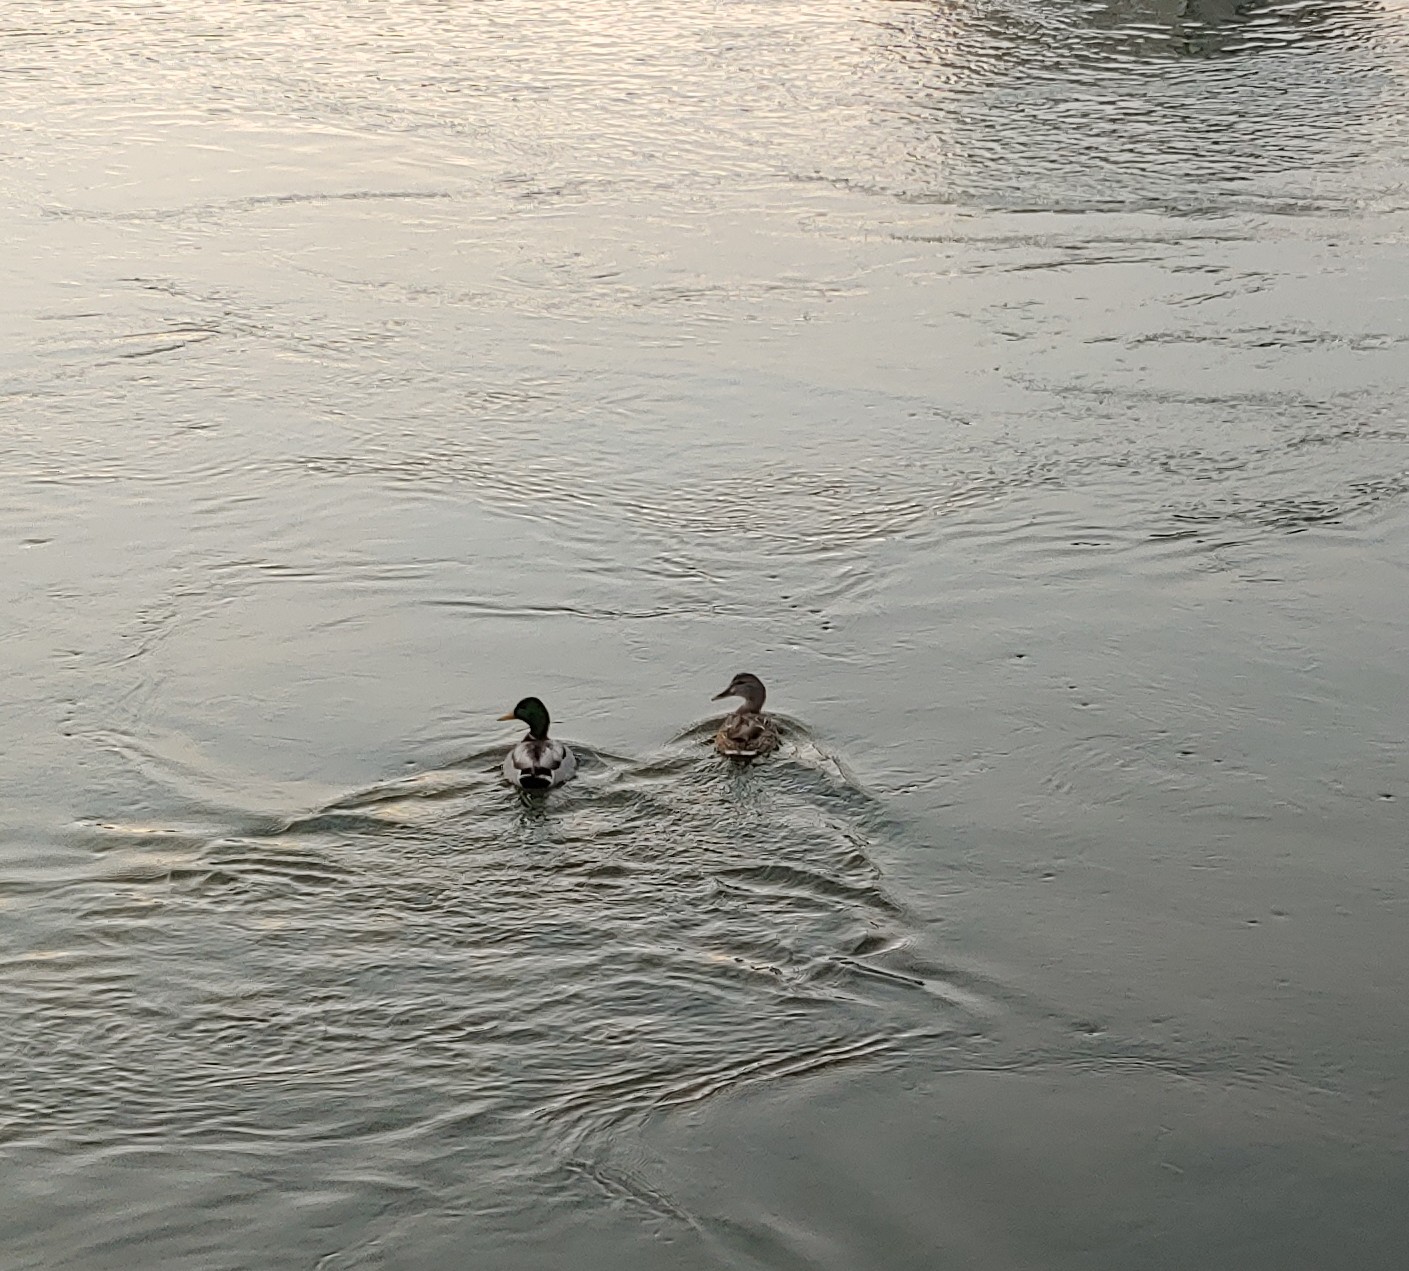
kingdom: Animalia
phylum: Chordata
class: Aves
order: Anseriformes
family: Anatidae
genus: Anas
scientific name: Anas platyrhynchos
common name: Mallard
